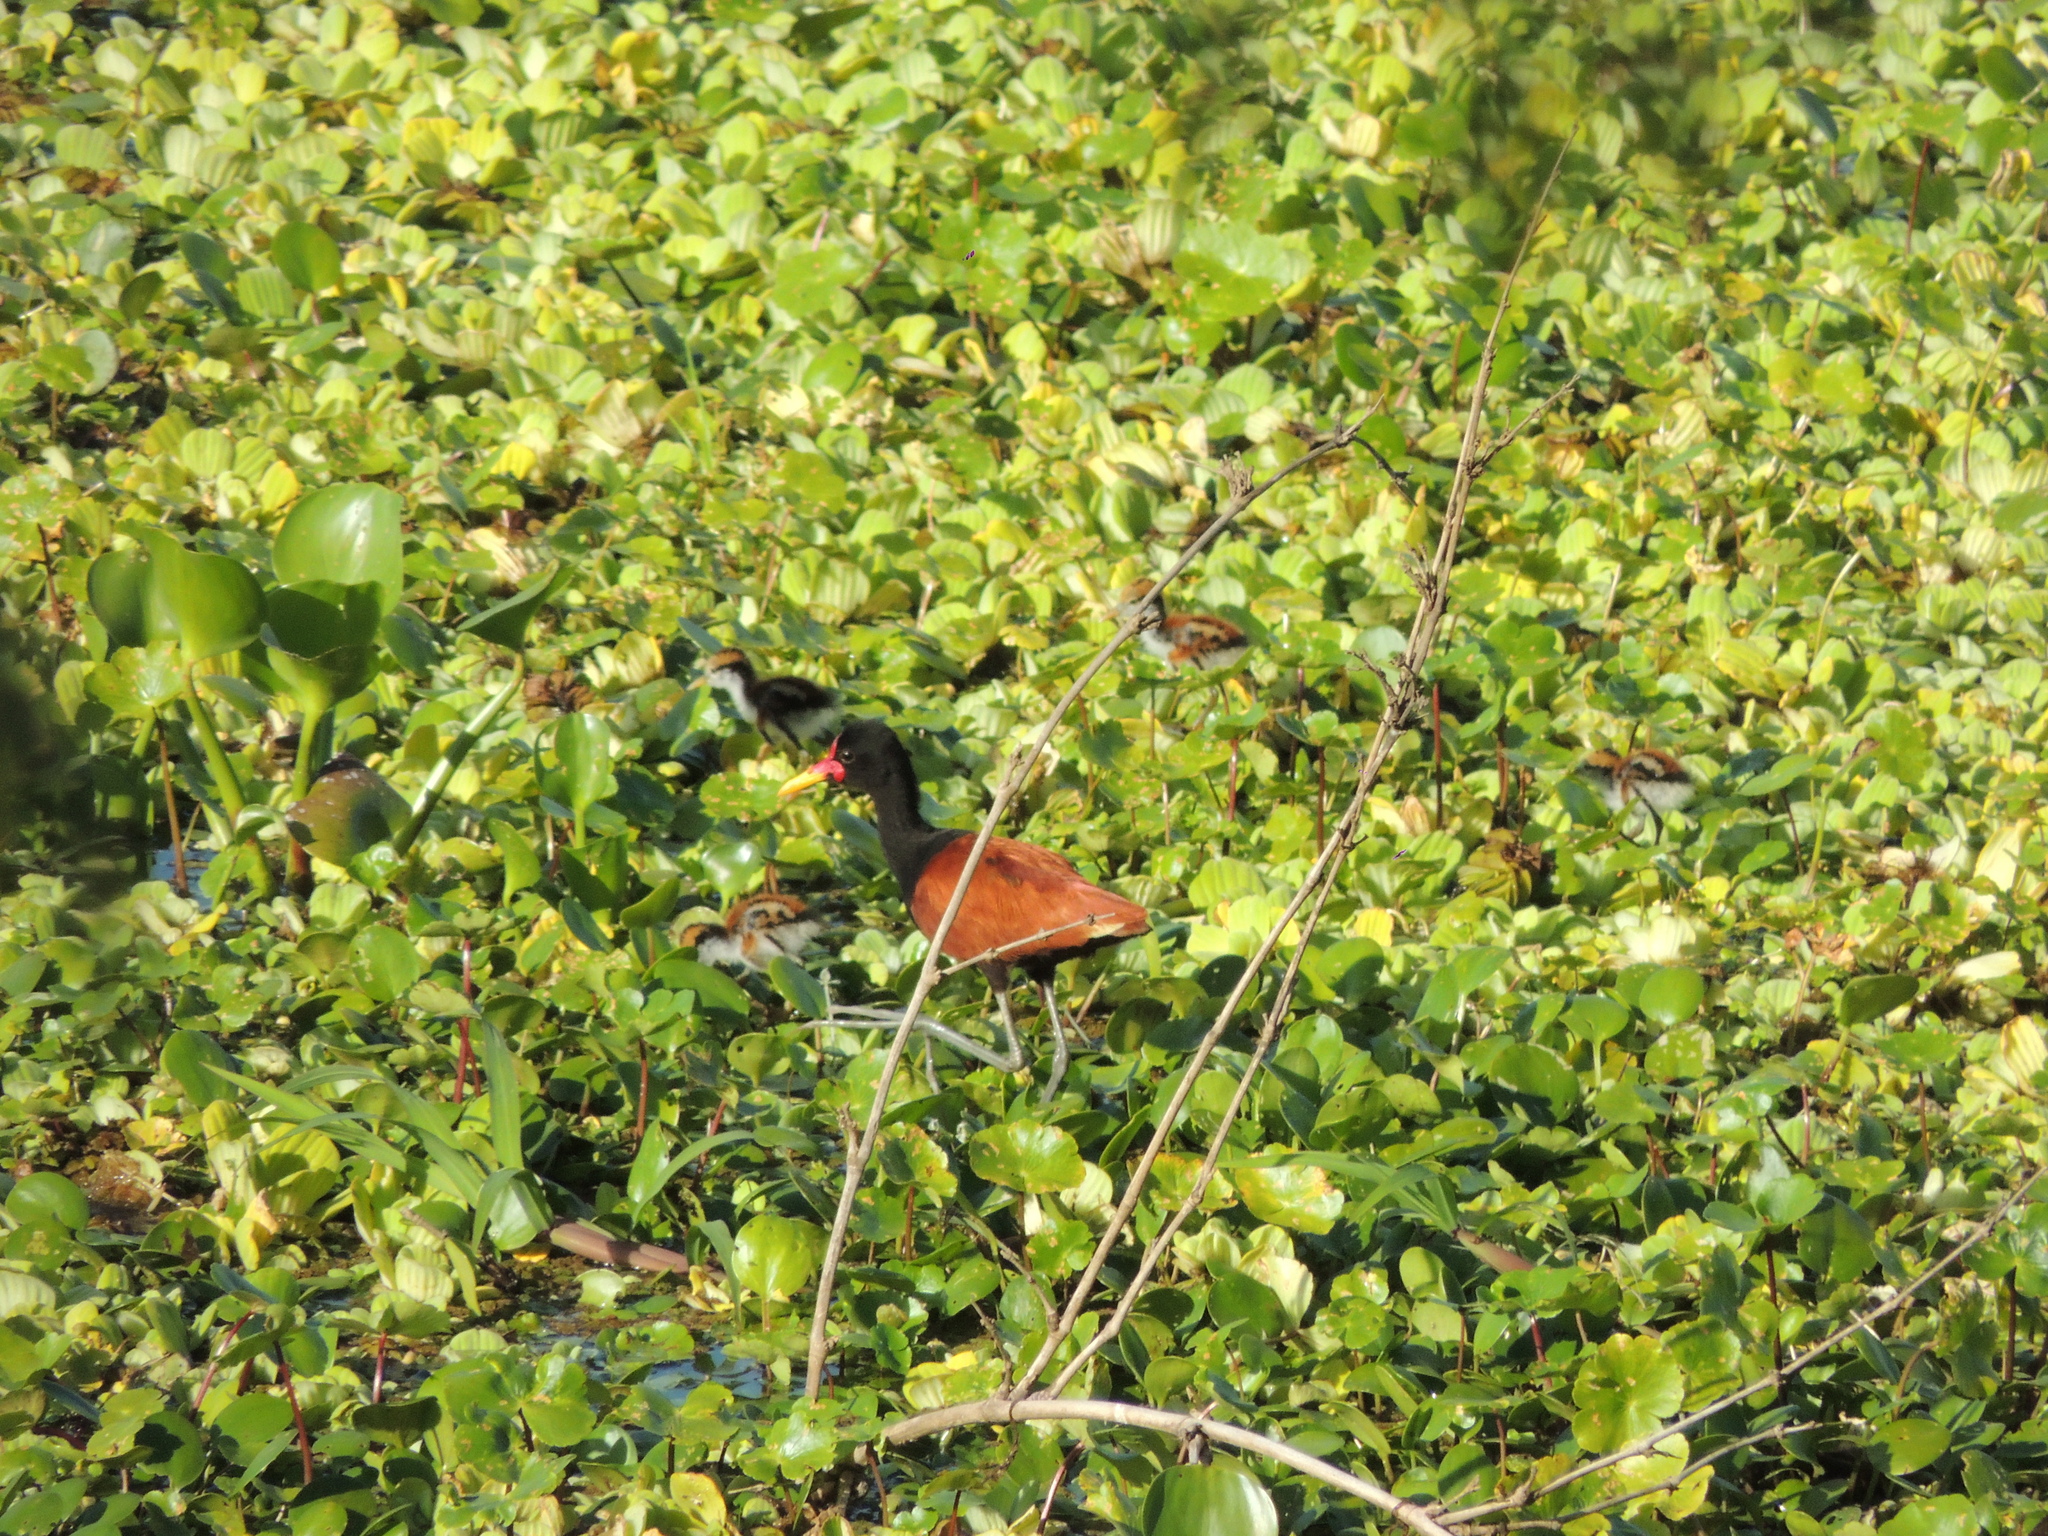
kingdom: Animalia
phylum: Chordata
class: Aves
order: Charadriiformes
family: Jacanidae
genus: Jacana
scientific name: Jacana jacana
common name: Wattled jacana
